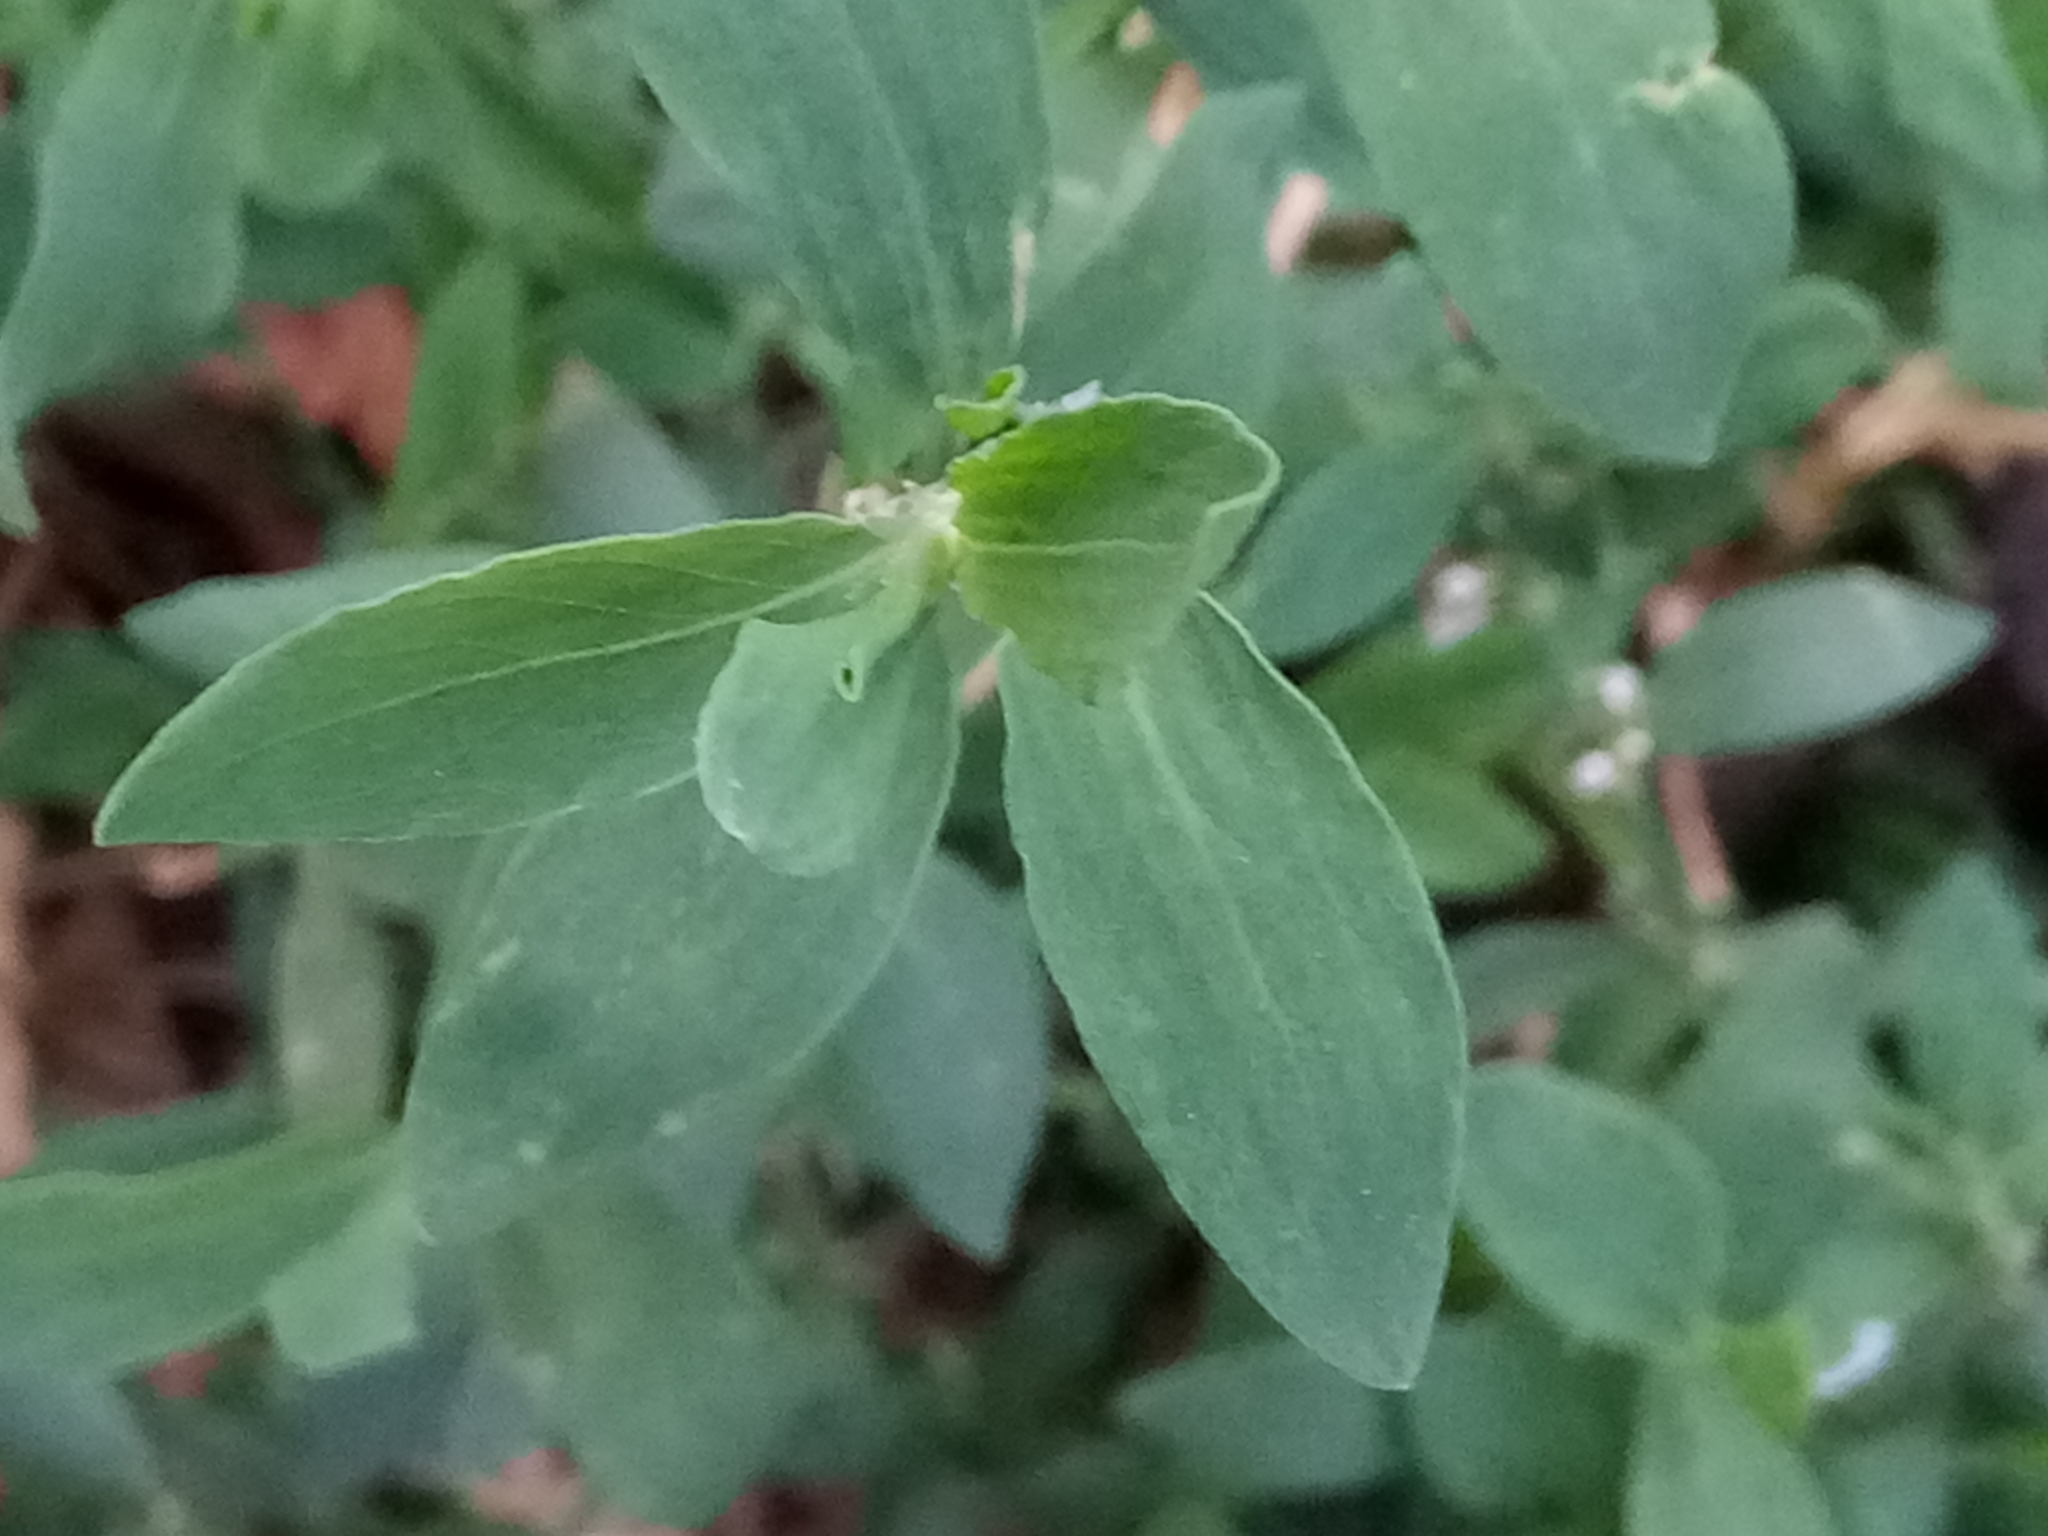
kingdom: Plantae
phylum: Tracheophyta
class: Magnoliopsida
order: Caryophyllales
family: Polygonaceae
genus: Polygonum
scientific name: Polygonum aviculare
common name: Prostrate knotweed
